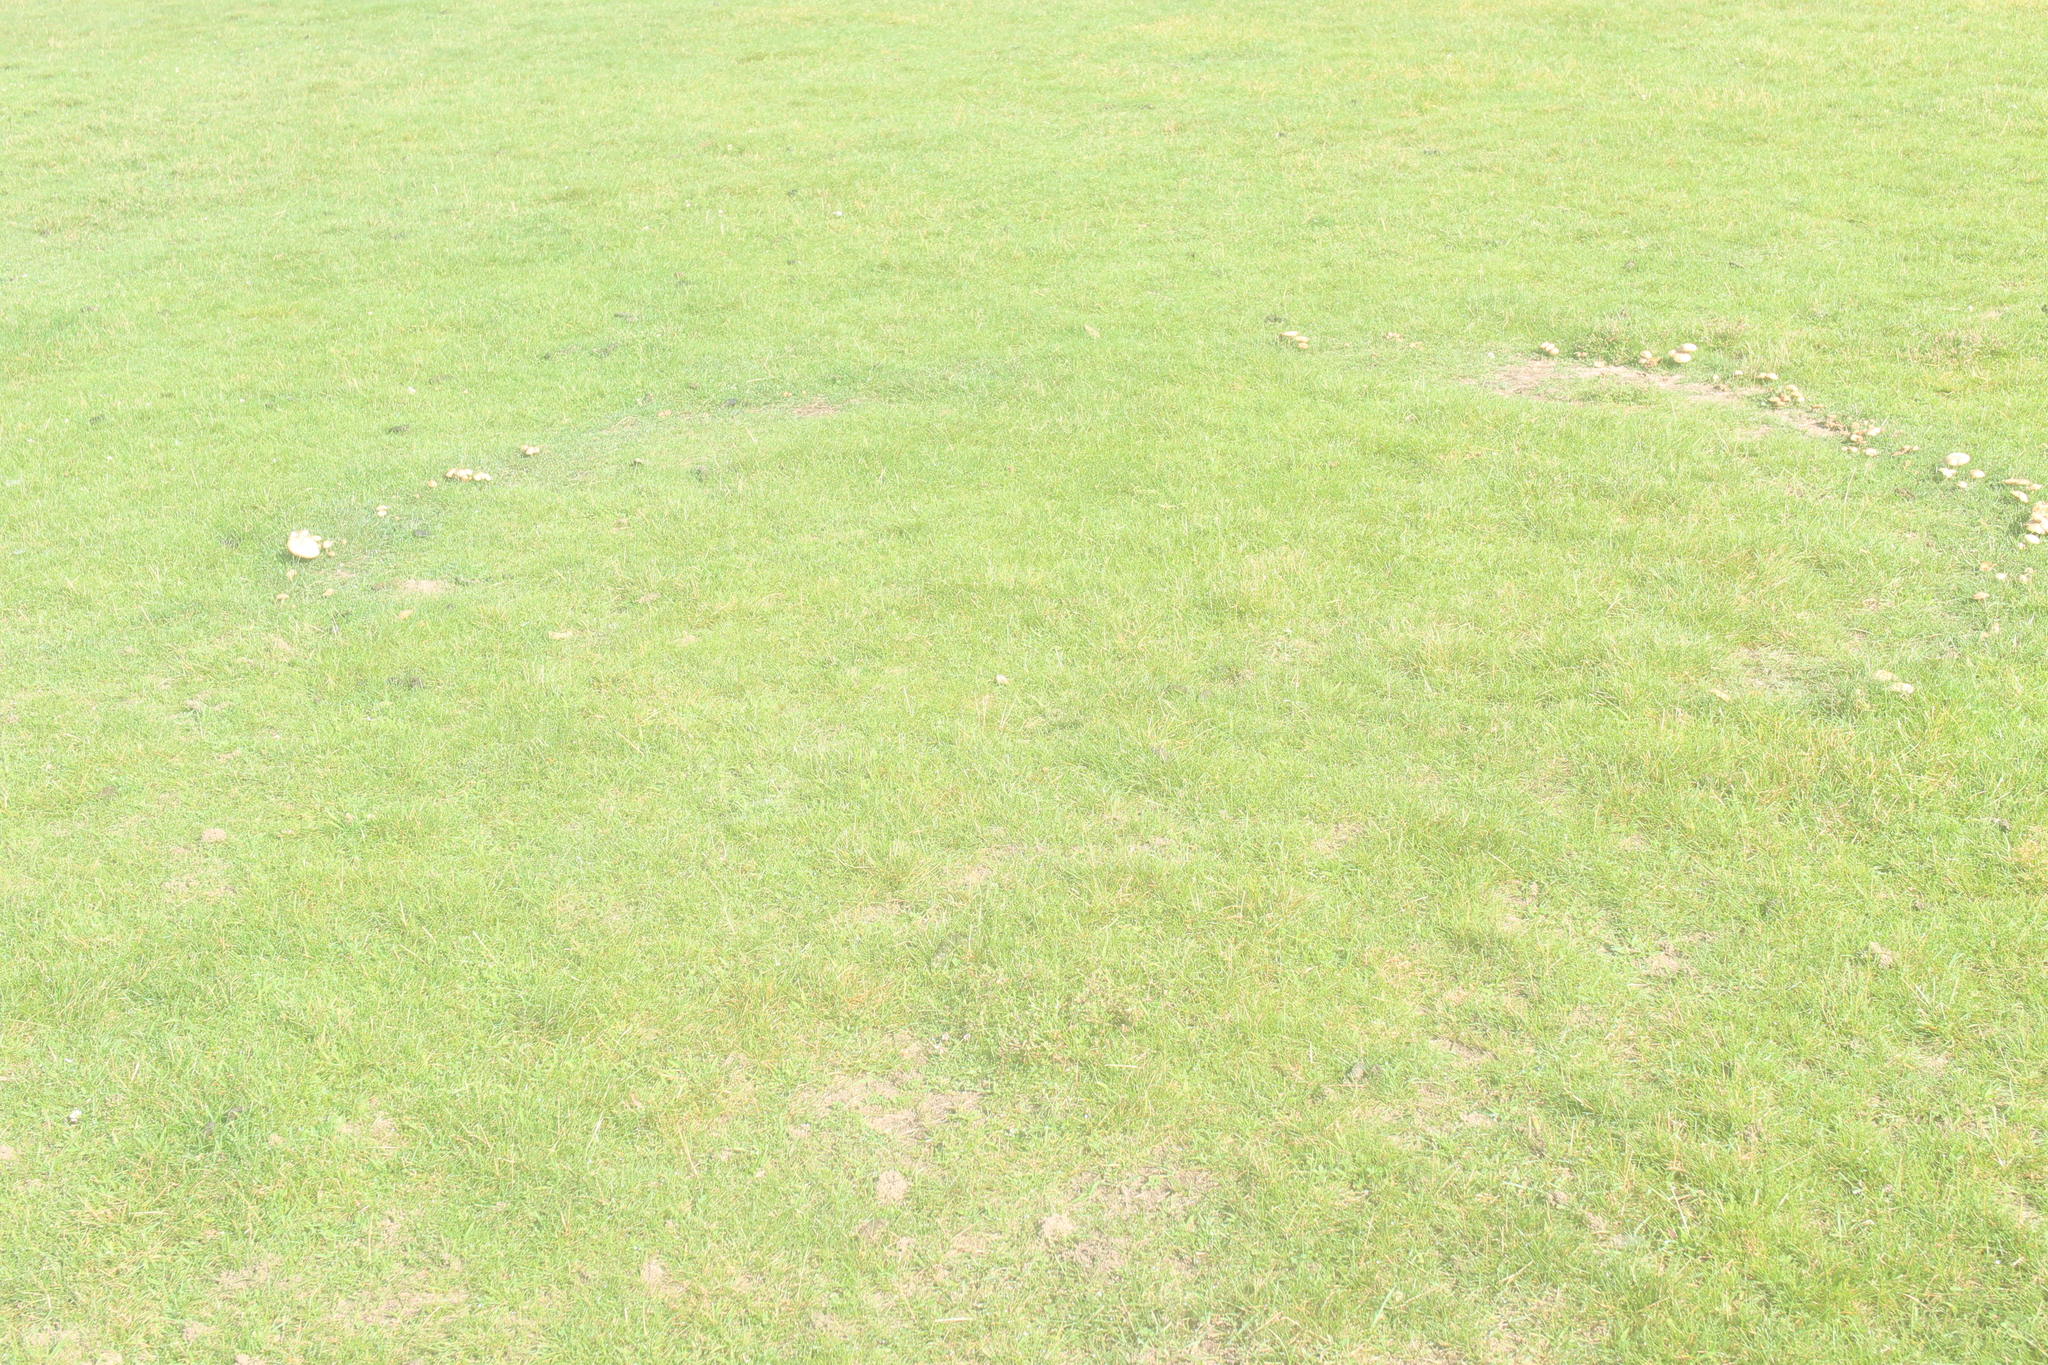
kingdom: Fungi
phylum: Basidiomycota
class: Agaricomycetes
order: Agaricales
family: Marasmiaceae
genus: Marasmius
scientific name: Marasmius oreades
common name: Fairy ring champignon
